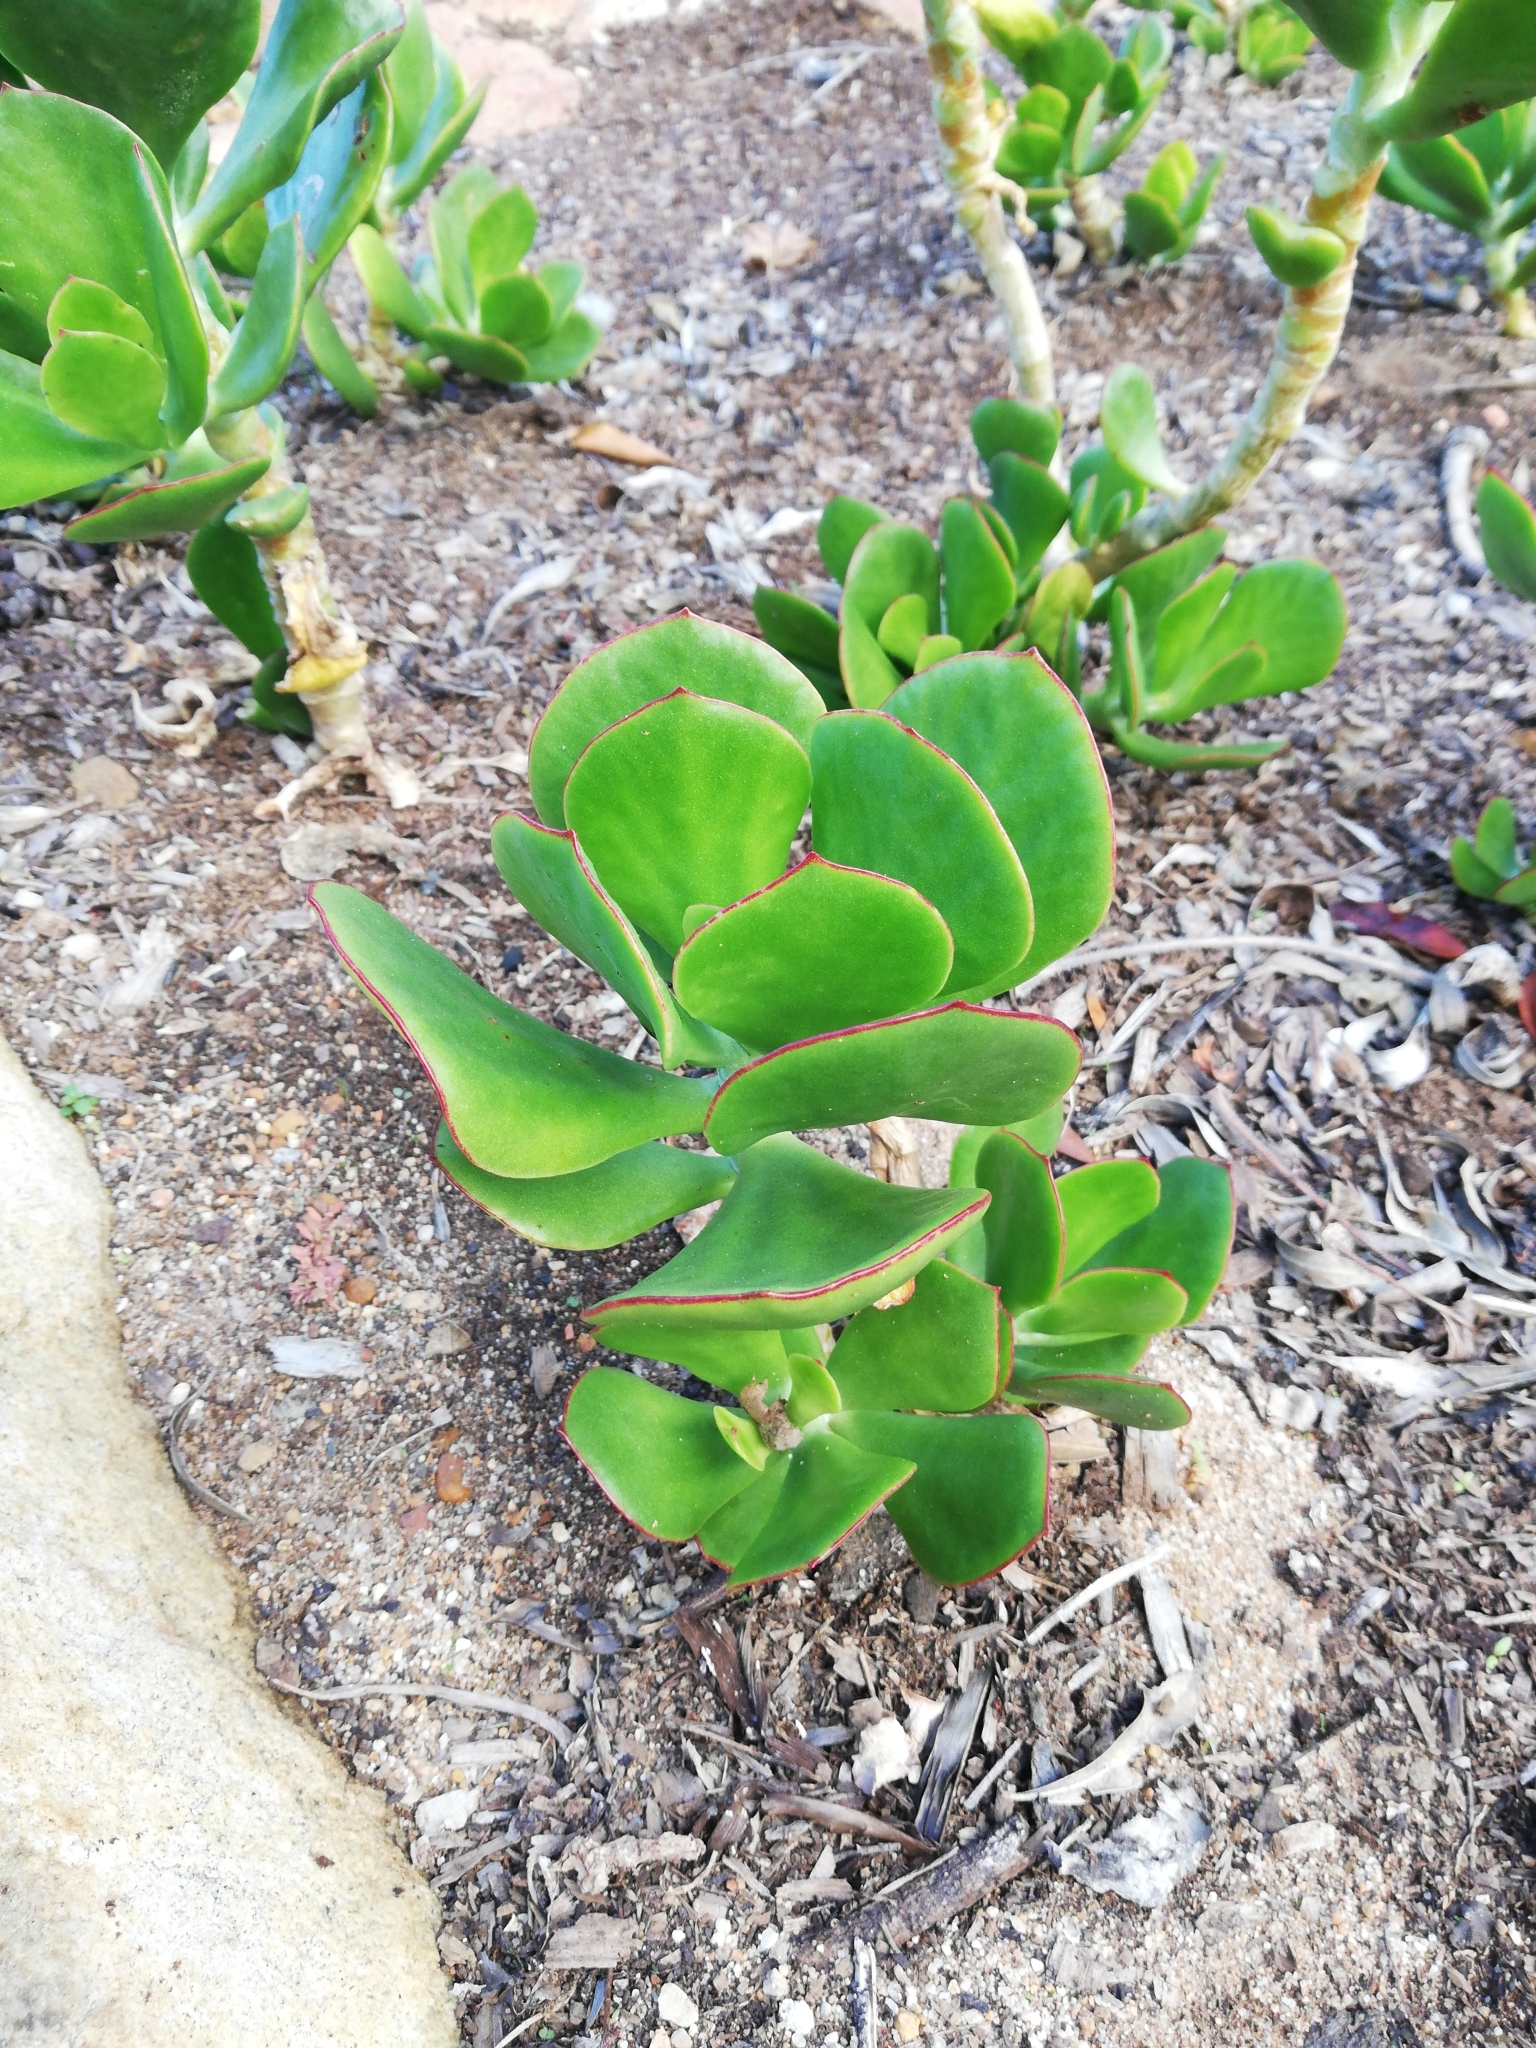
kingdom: Plantae
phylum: Tracheophyta
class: Magnoliopsida
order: Saxifragales
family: Crassulaceae
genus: Cotyledon
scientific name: Cotyledon orbiculata
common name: Pig's ear
